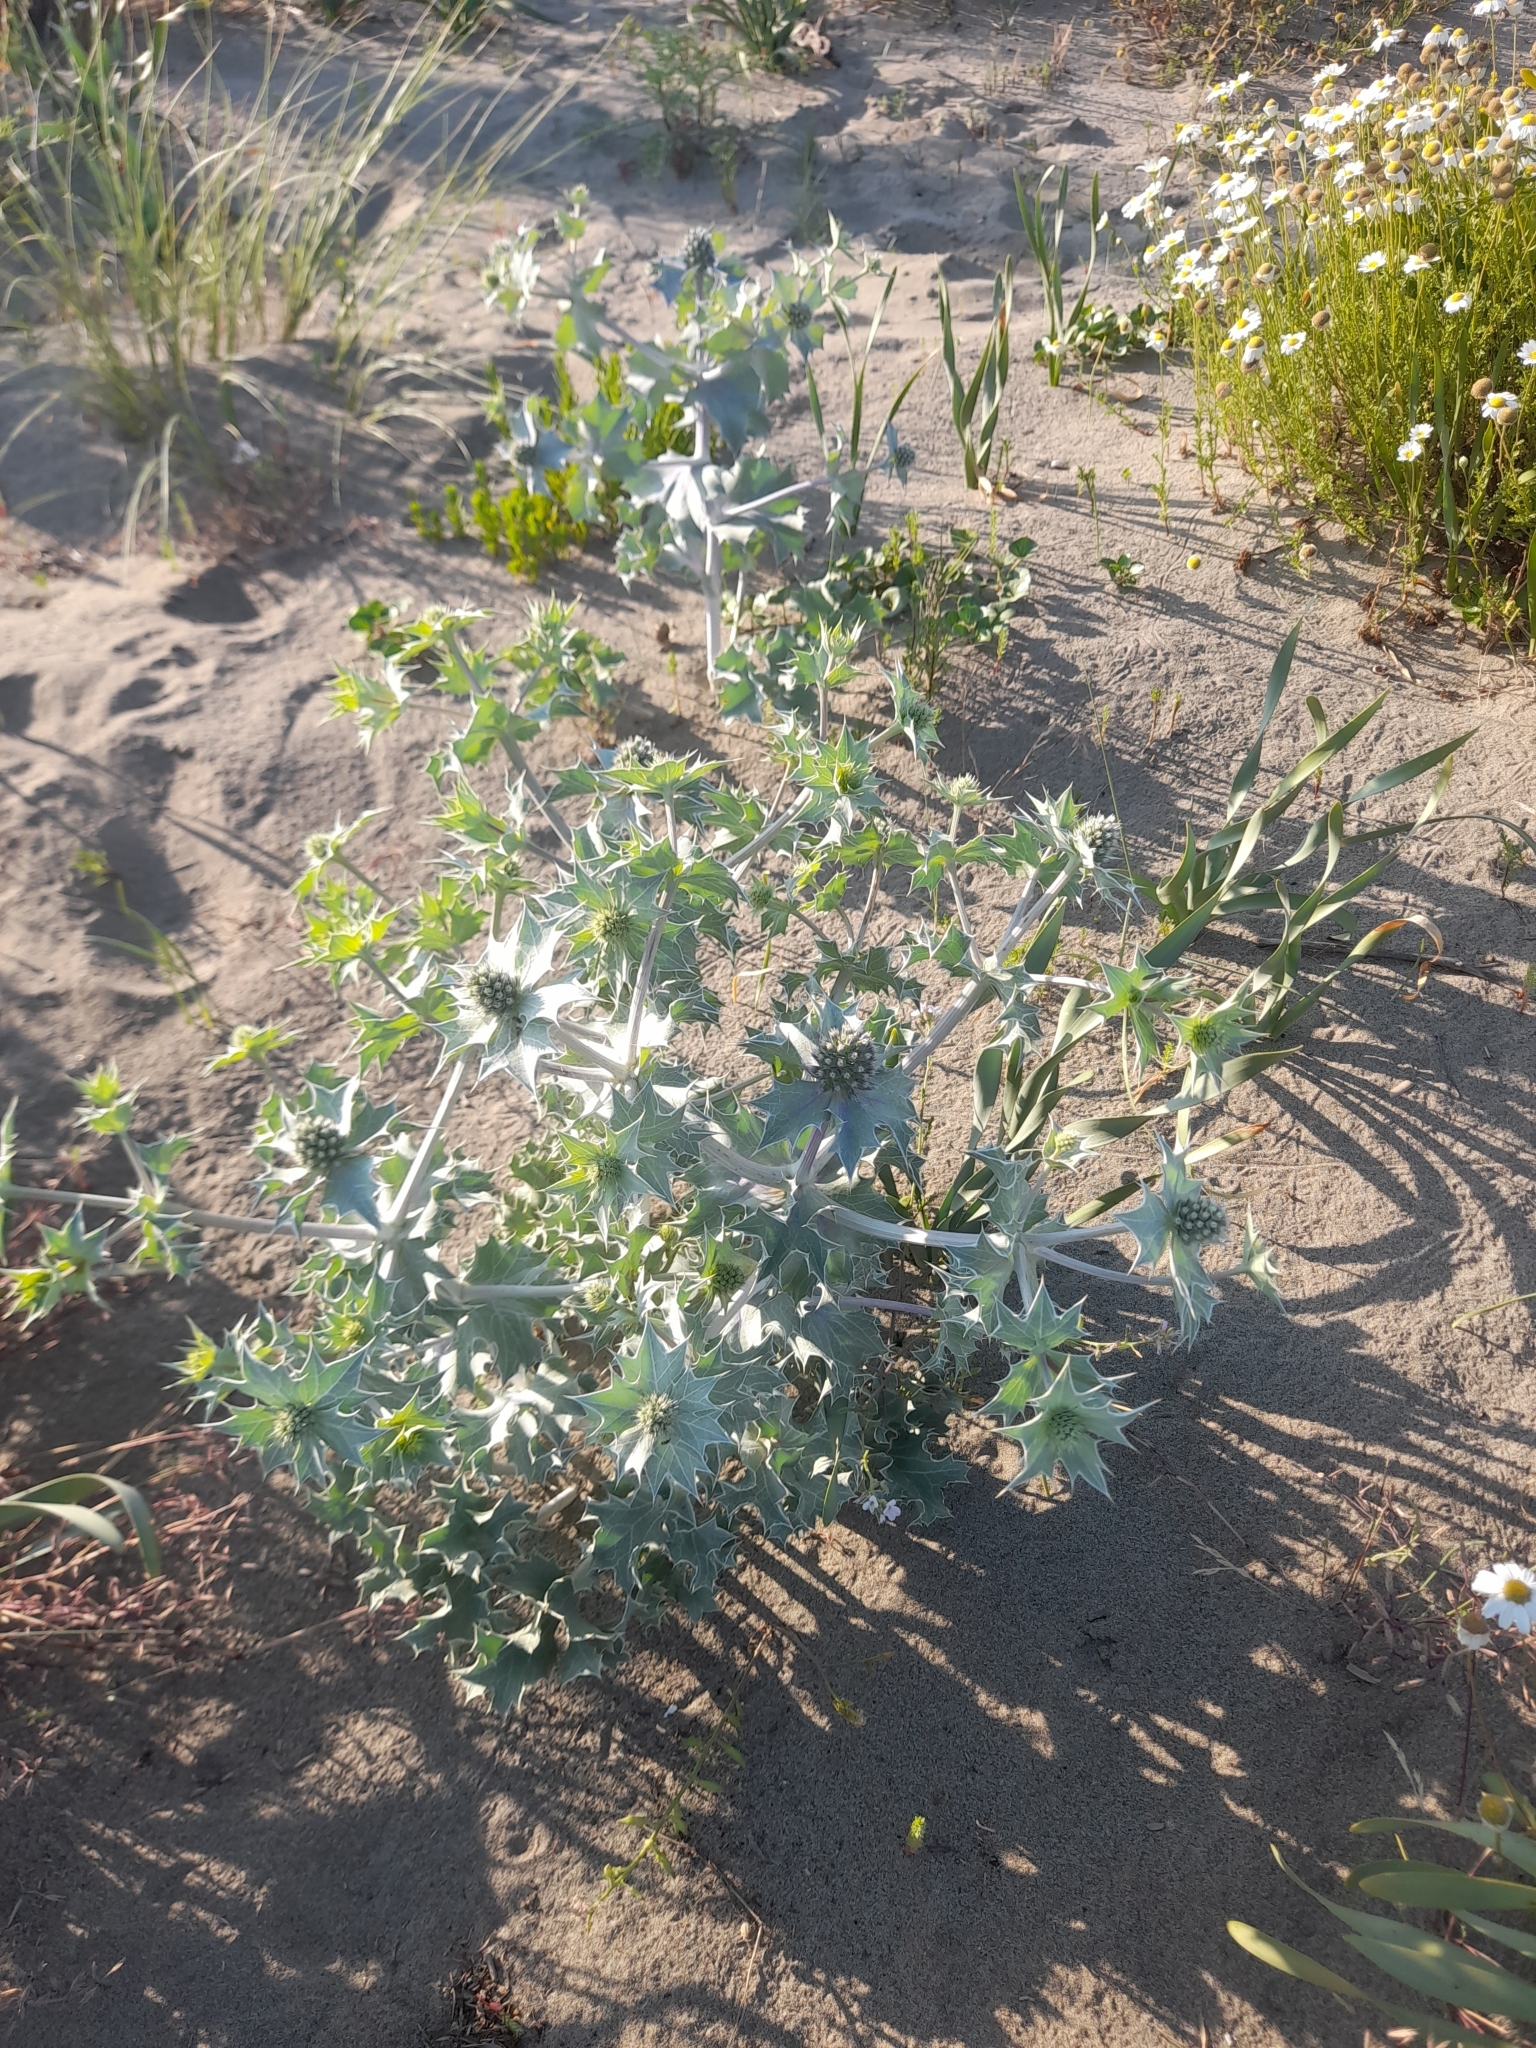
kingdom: Plantae
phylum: Tracheophyta
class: Magnoliopsida
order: Apiales
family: Apiaceae
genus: Eryngium
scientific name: Eryngium maritimum
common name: Sea-holly
